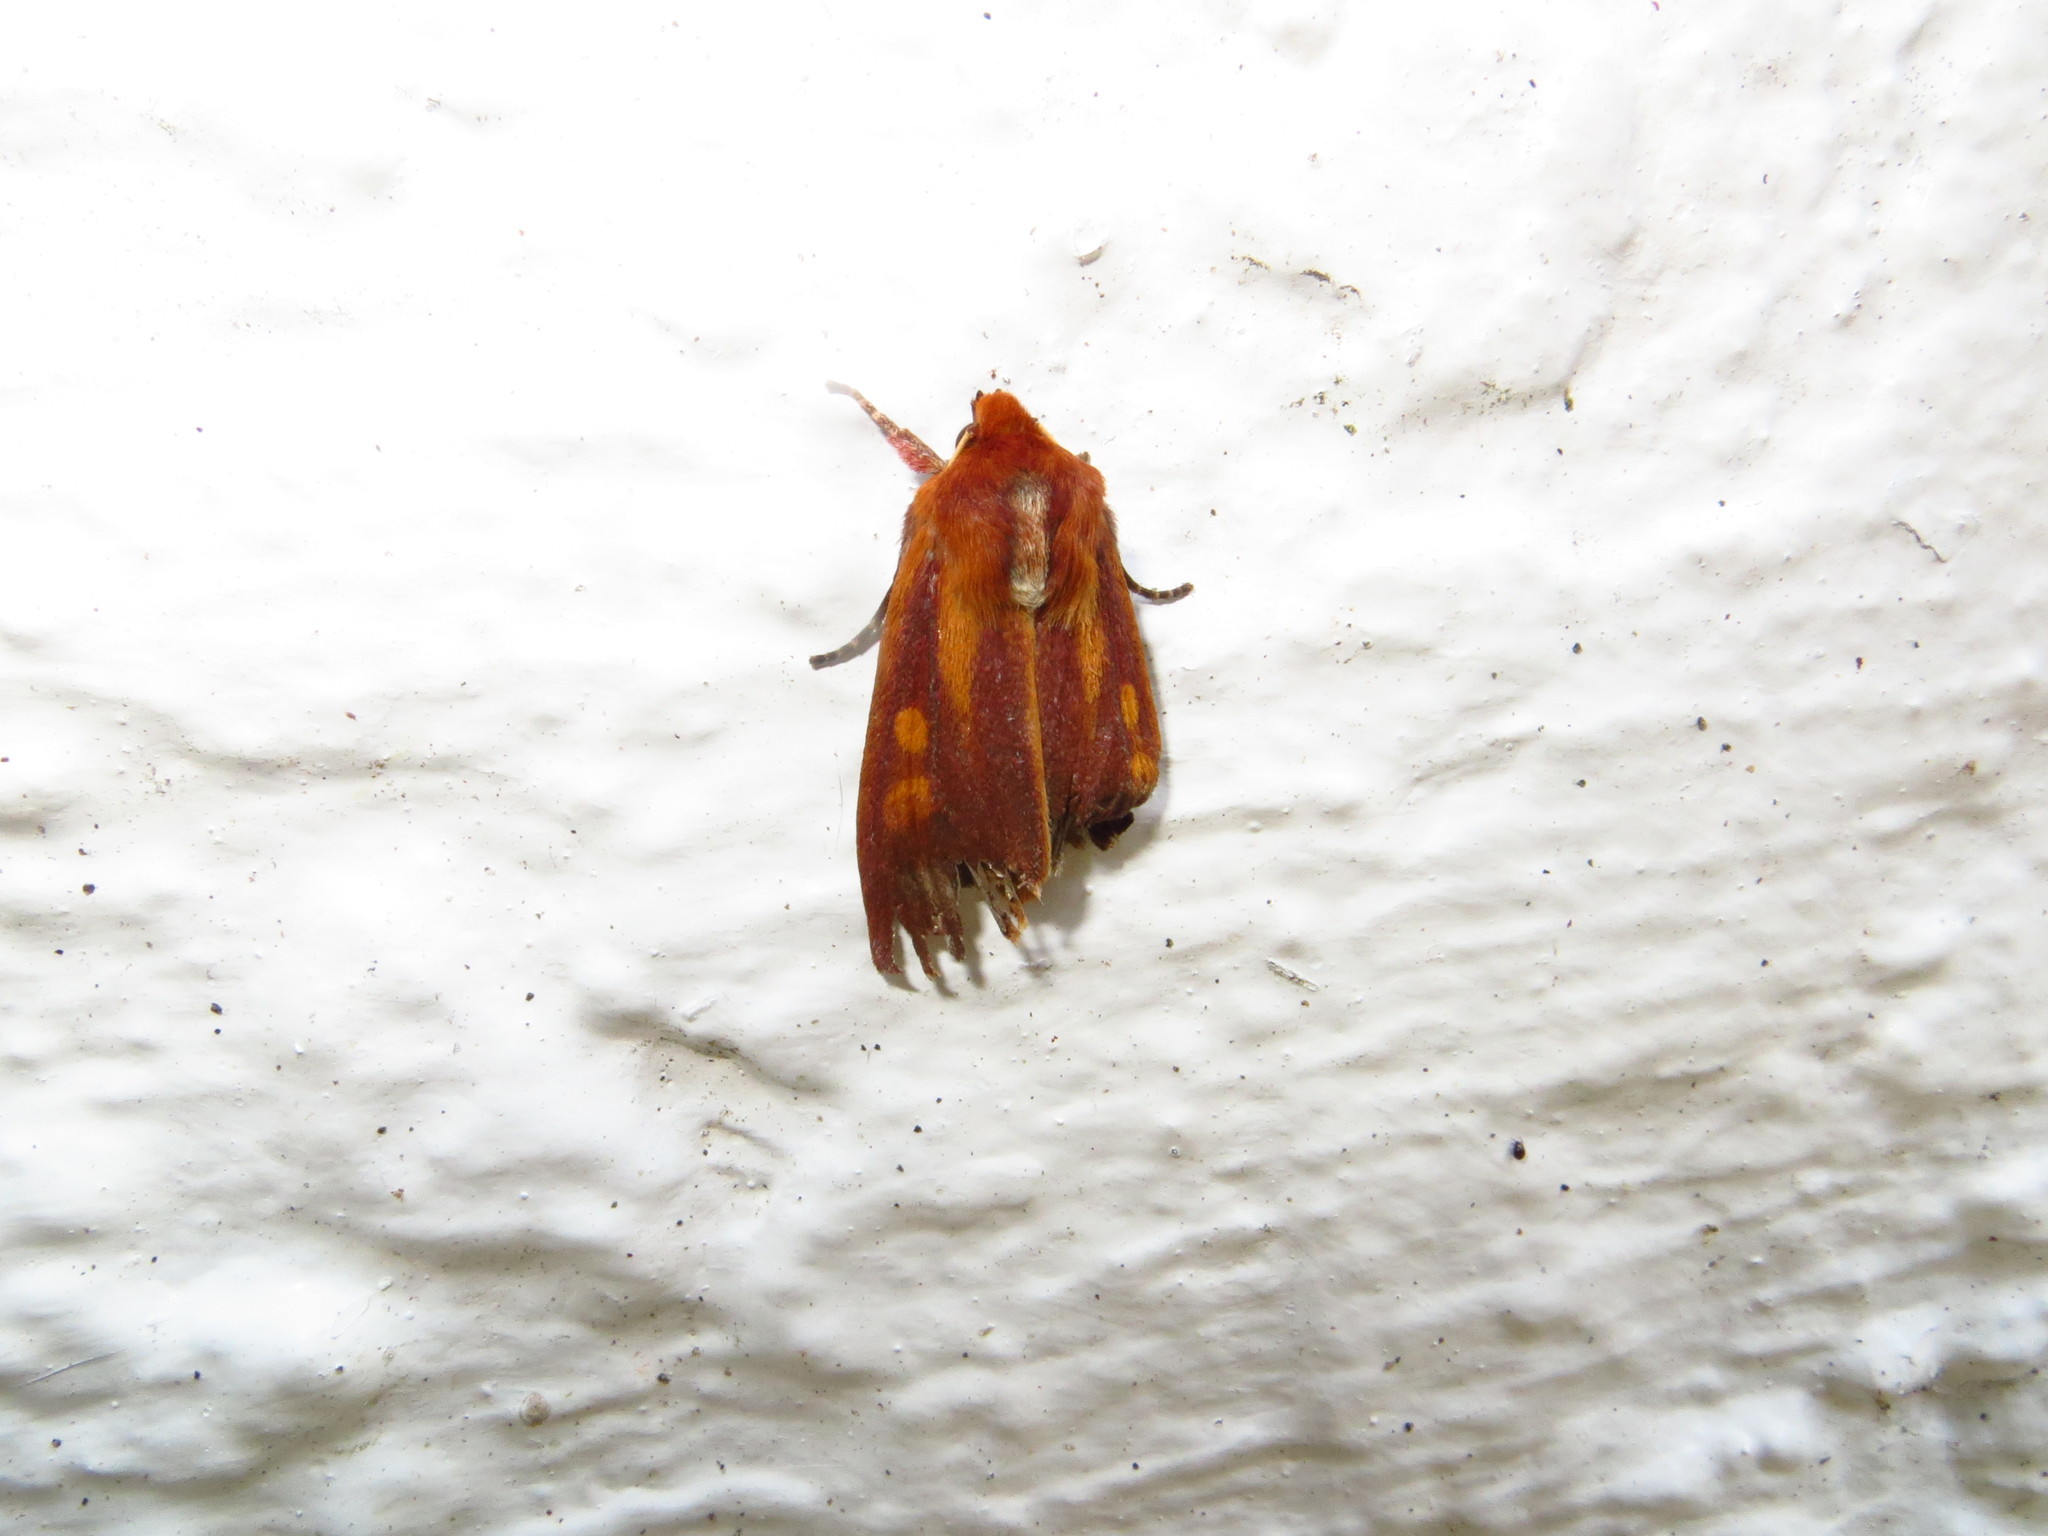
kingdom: Animalia
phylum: Arthropoda
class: Insecta
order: Lepidoptera
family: Noctuidae
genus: Ichneutica
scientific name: Ichneutica
